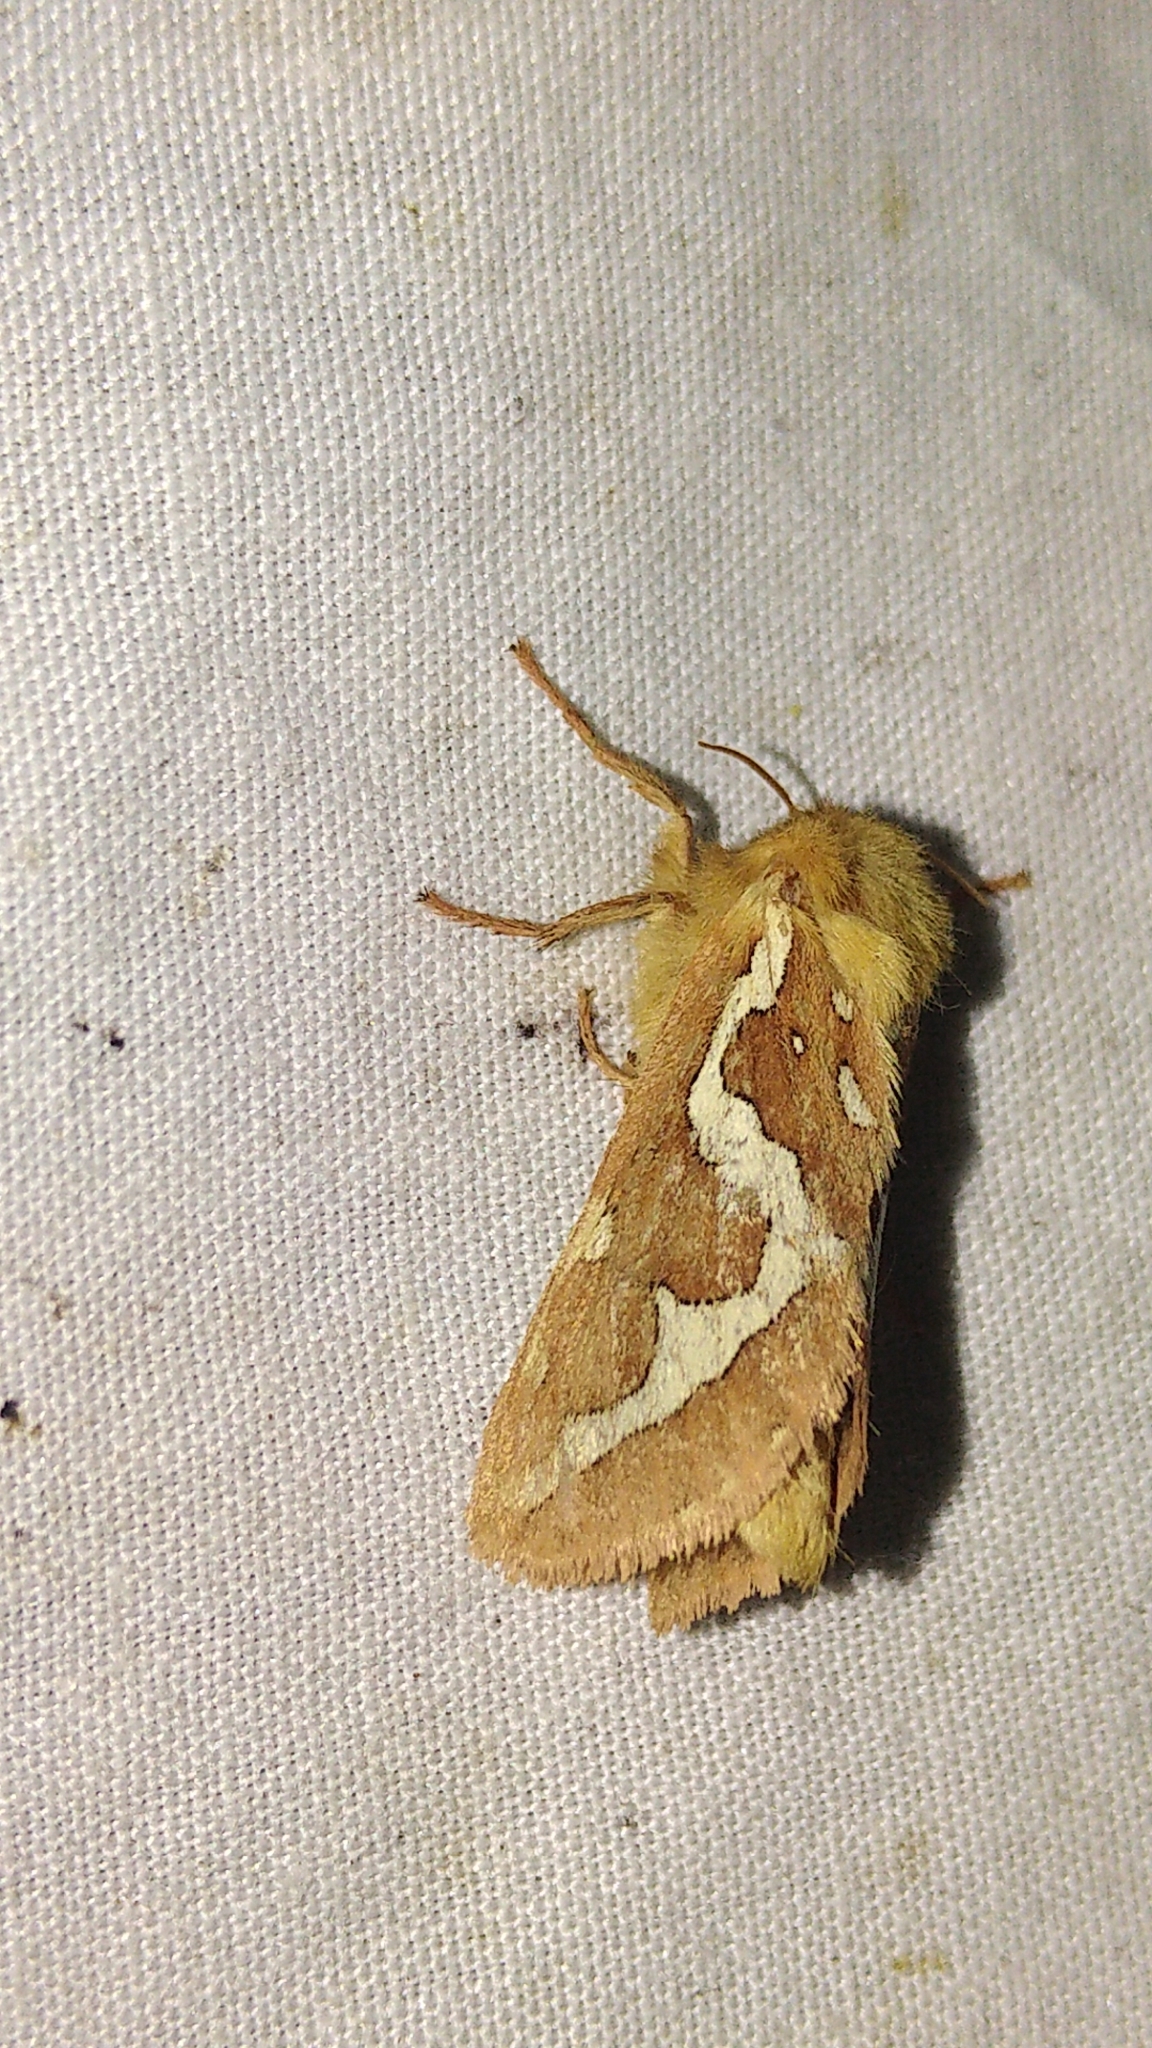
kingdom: Animalia
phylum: Arthropoda
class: Insecta
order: Lepidoptera
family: Hepialidae
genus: Gazoryctra
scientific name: Gazoryctra novigannus
